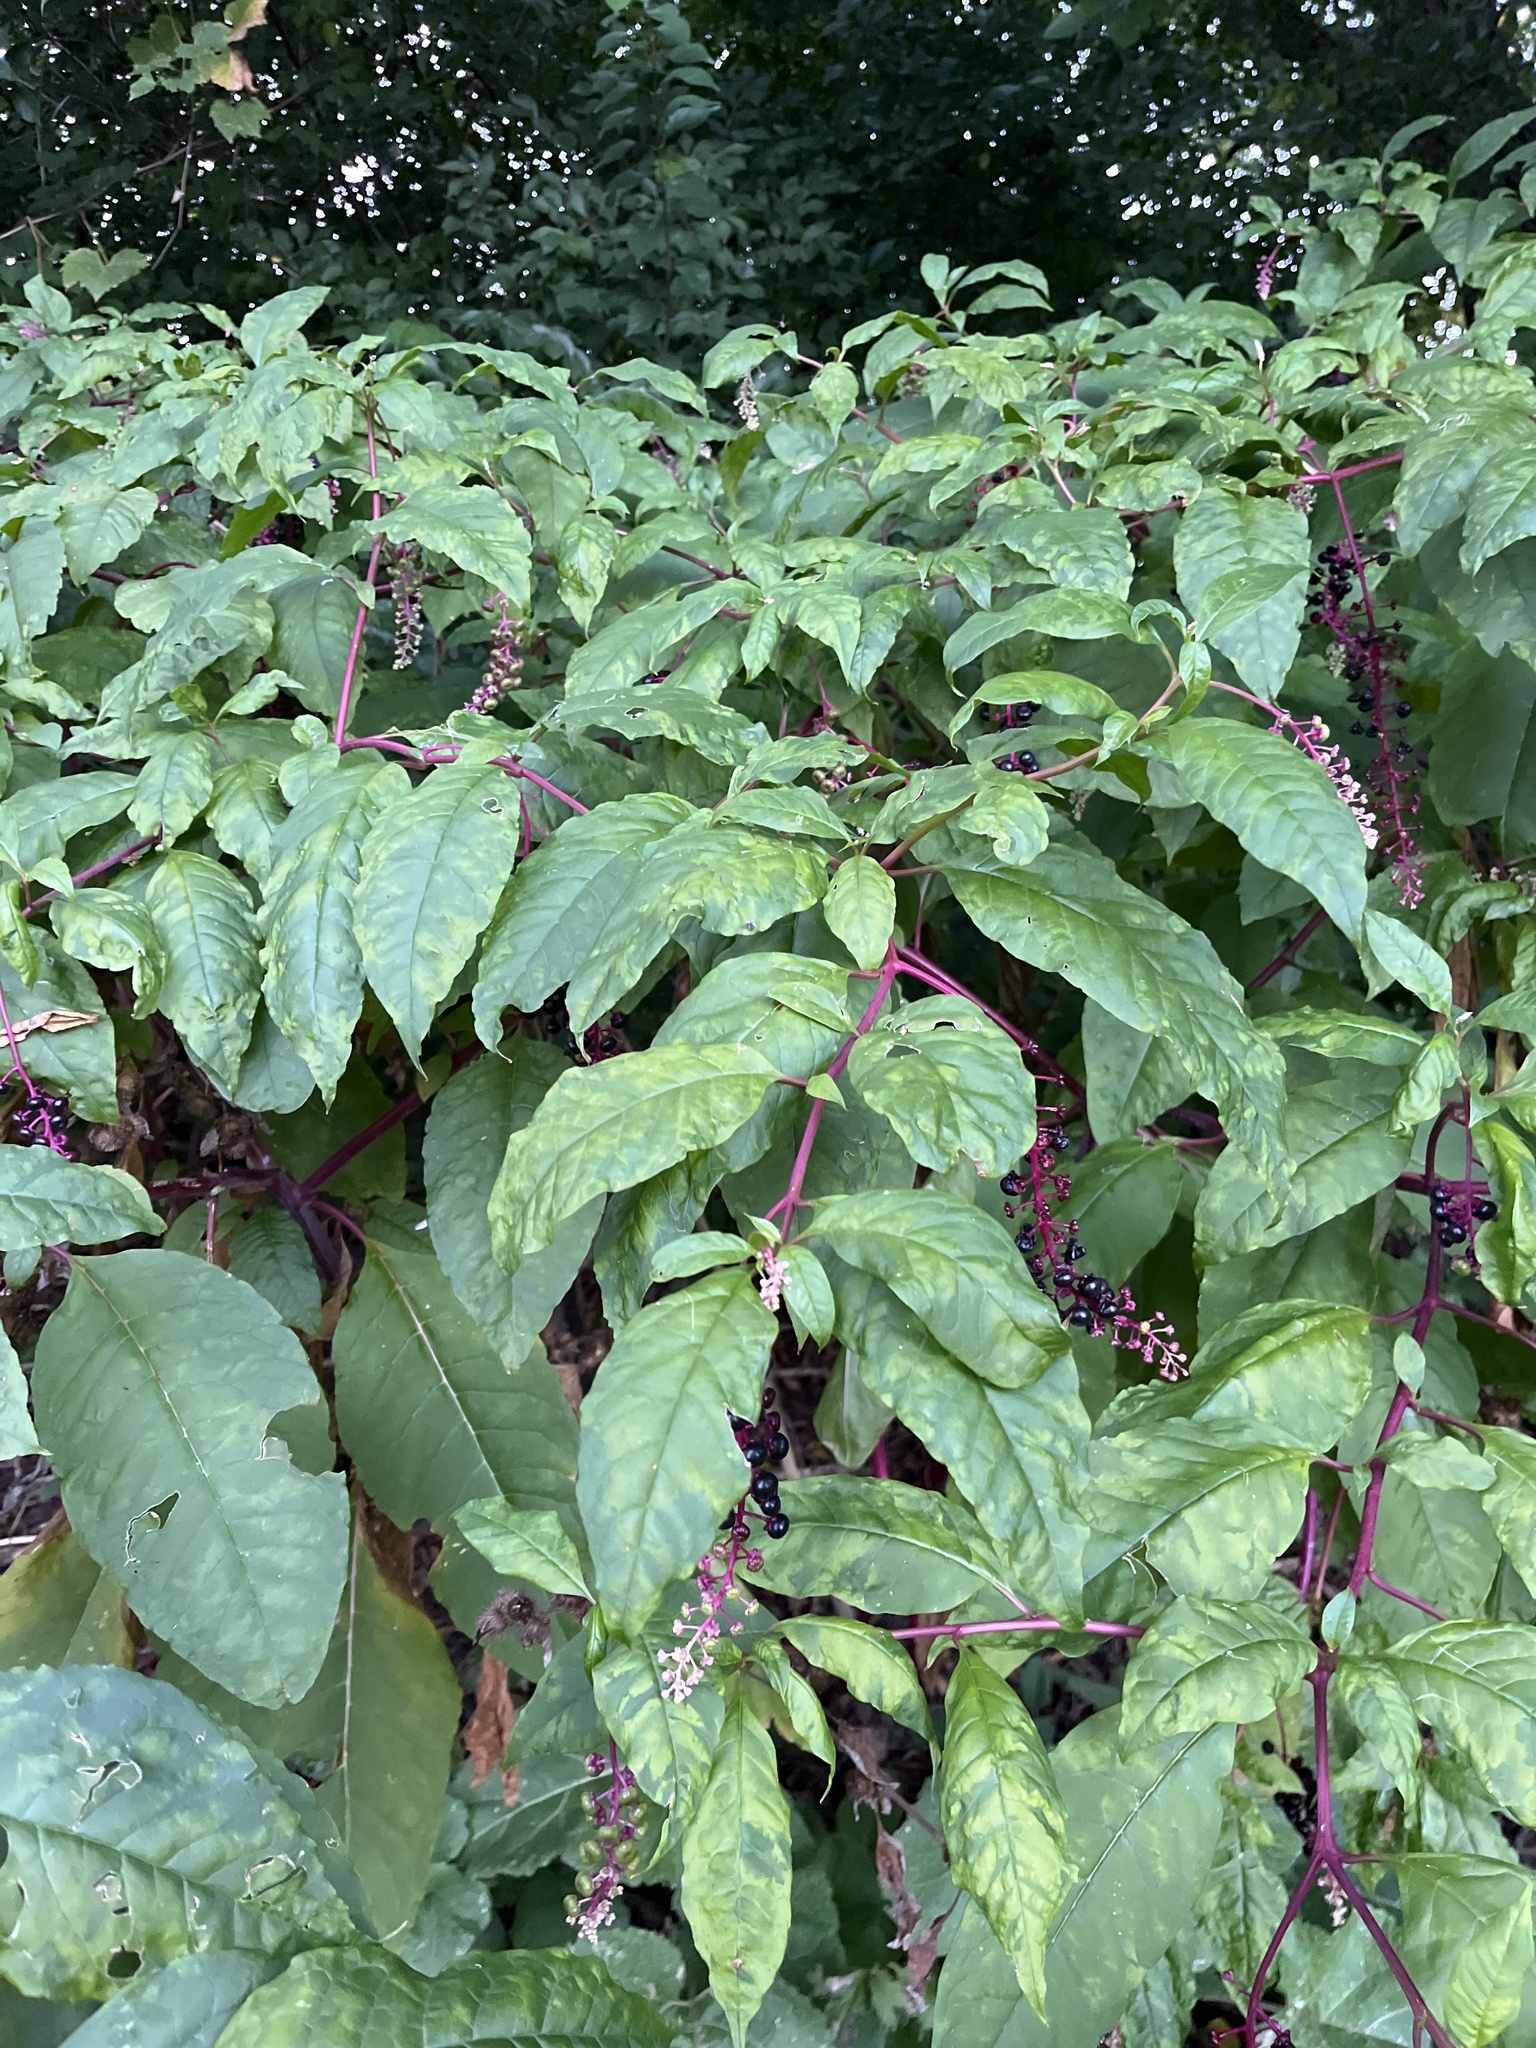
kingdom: Plantae
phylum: Tracheophyta
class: Magnoliopsida
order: Caryophyllales
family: Phytolaccaceae
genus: Phytolacca
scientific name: Phytolacca americana
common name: American pokeweed
